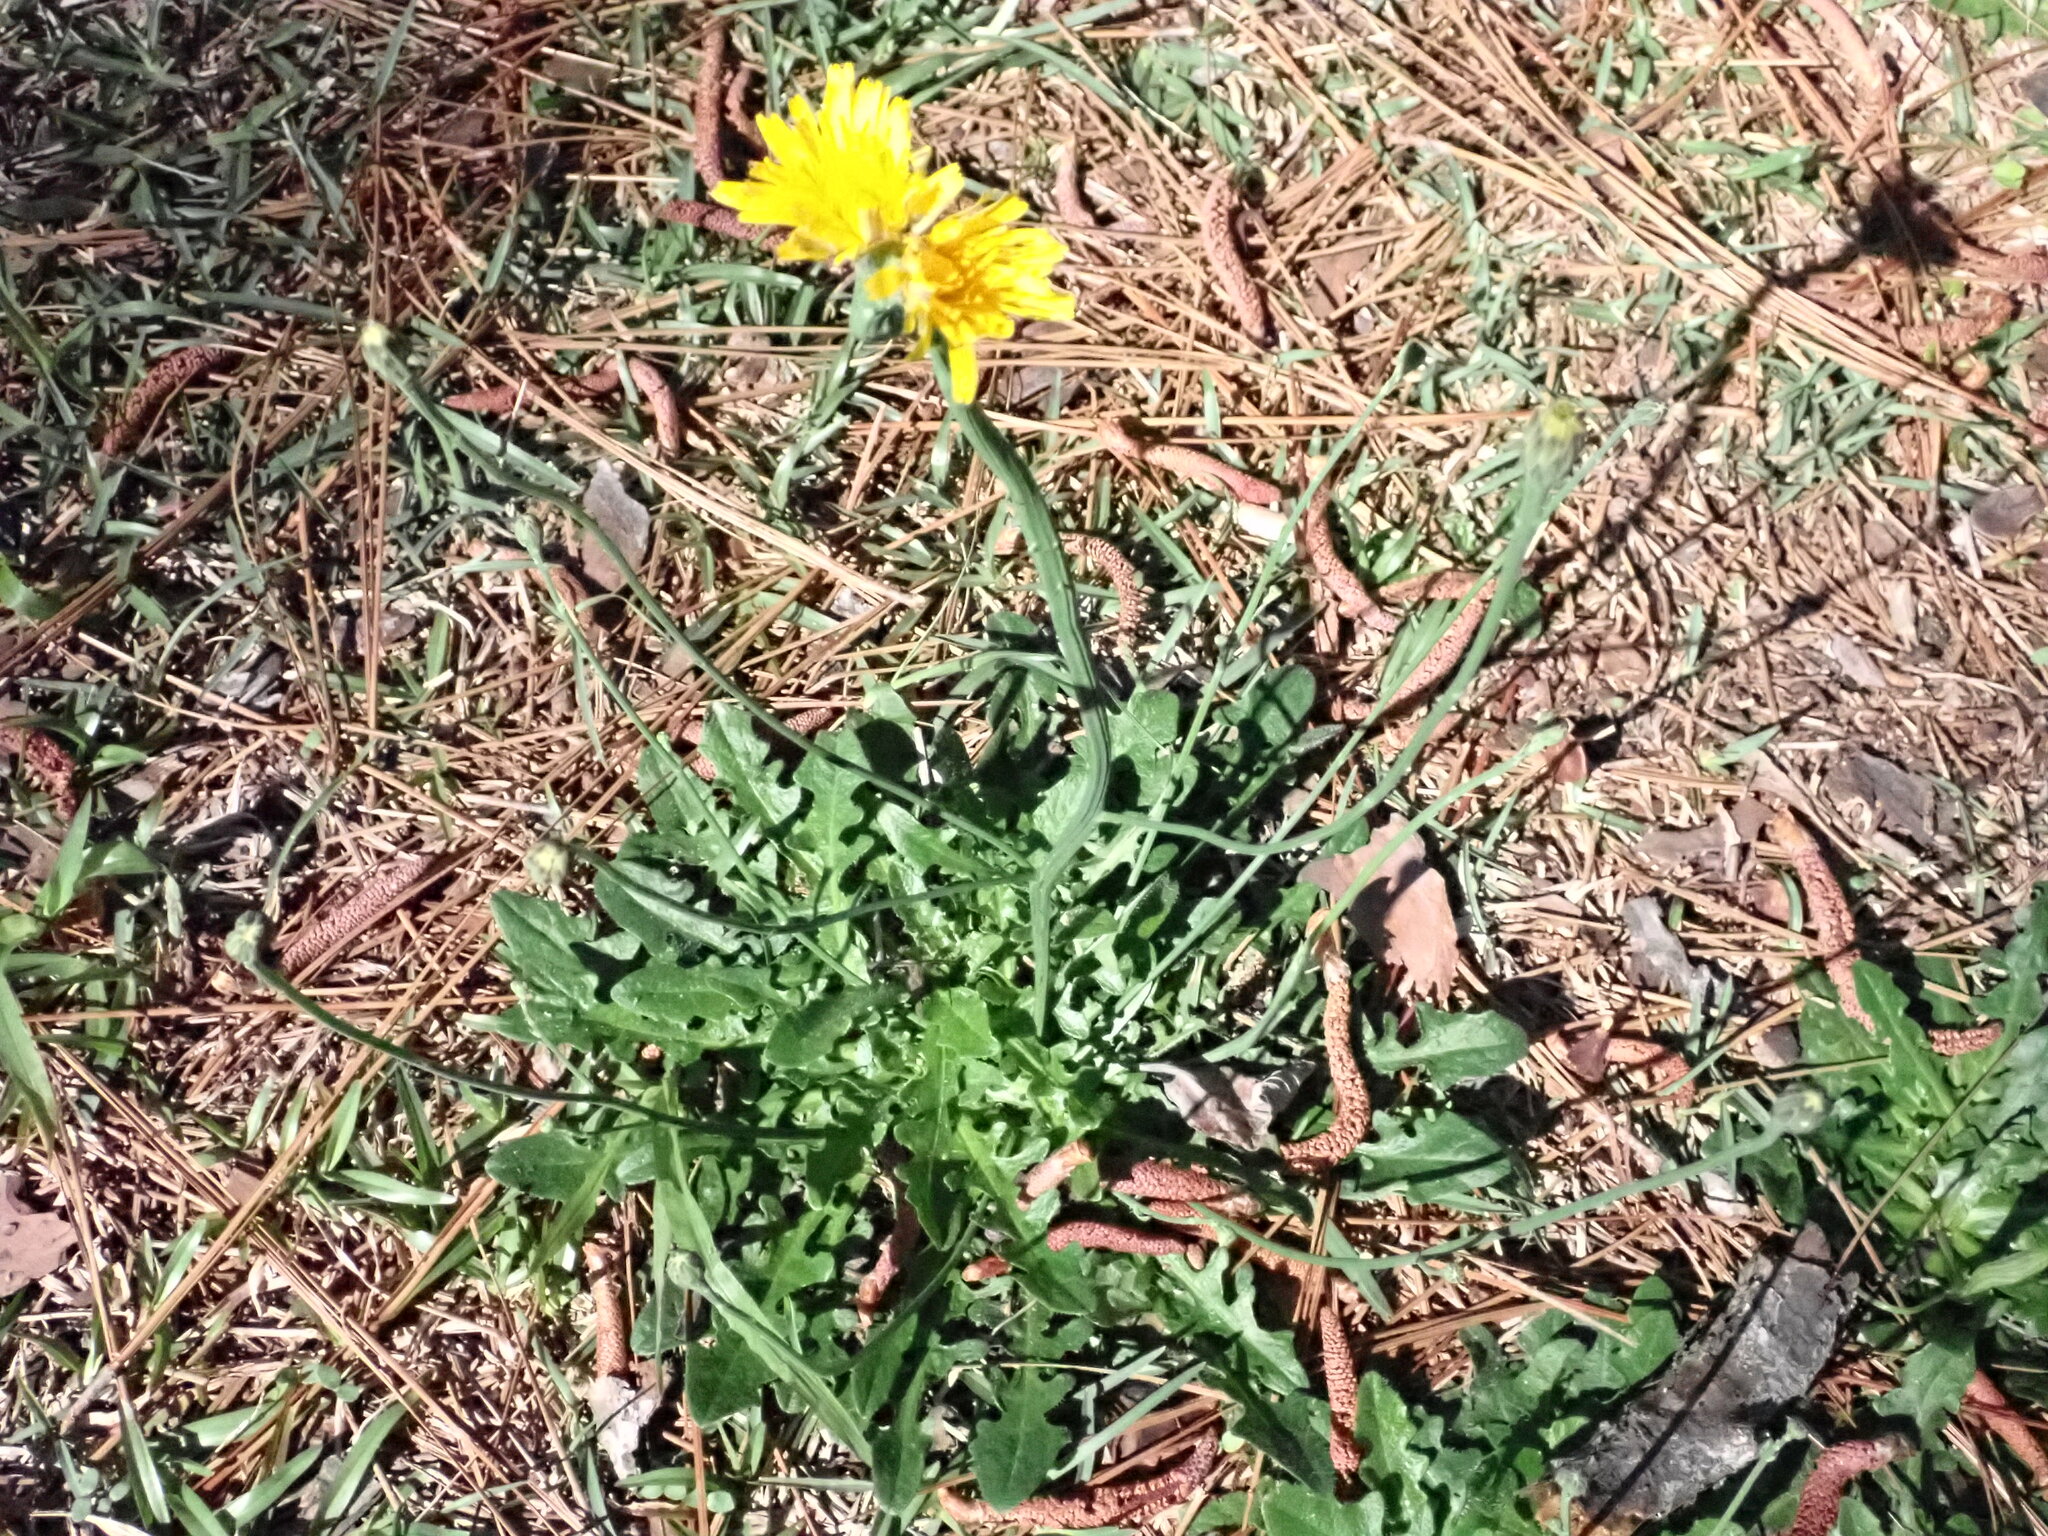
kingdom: Plantae
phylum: Tracheophyta
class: Magnoliopsida
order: Asterales
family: Asteraceae
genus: Hypochaeris
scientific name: Hypochaeris radicata
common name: Flatweed
